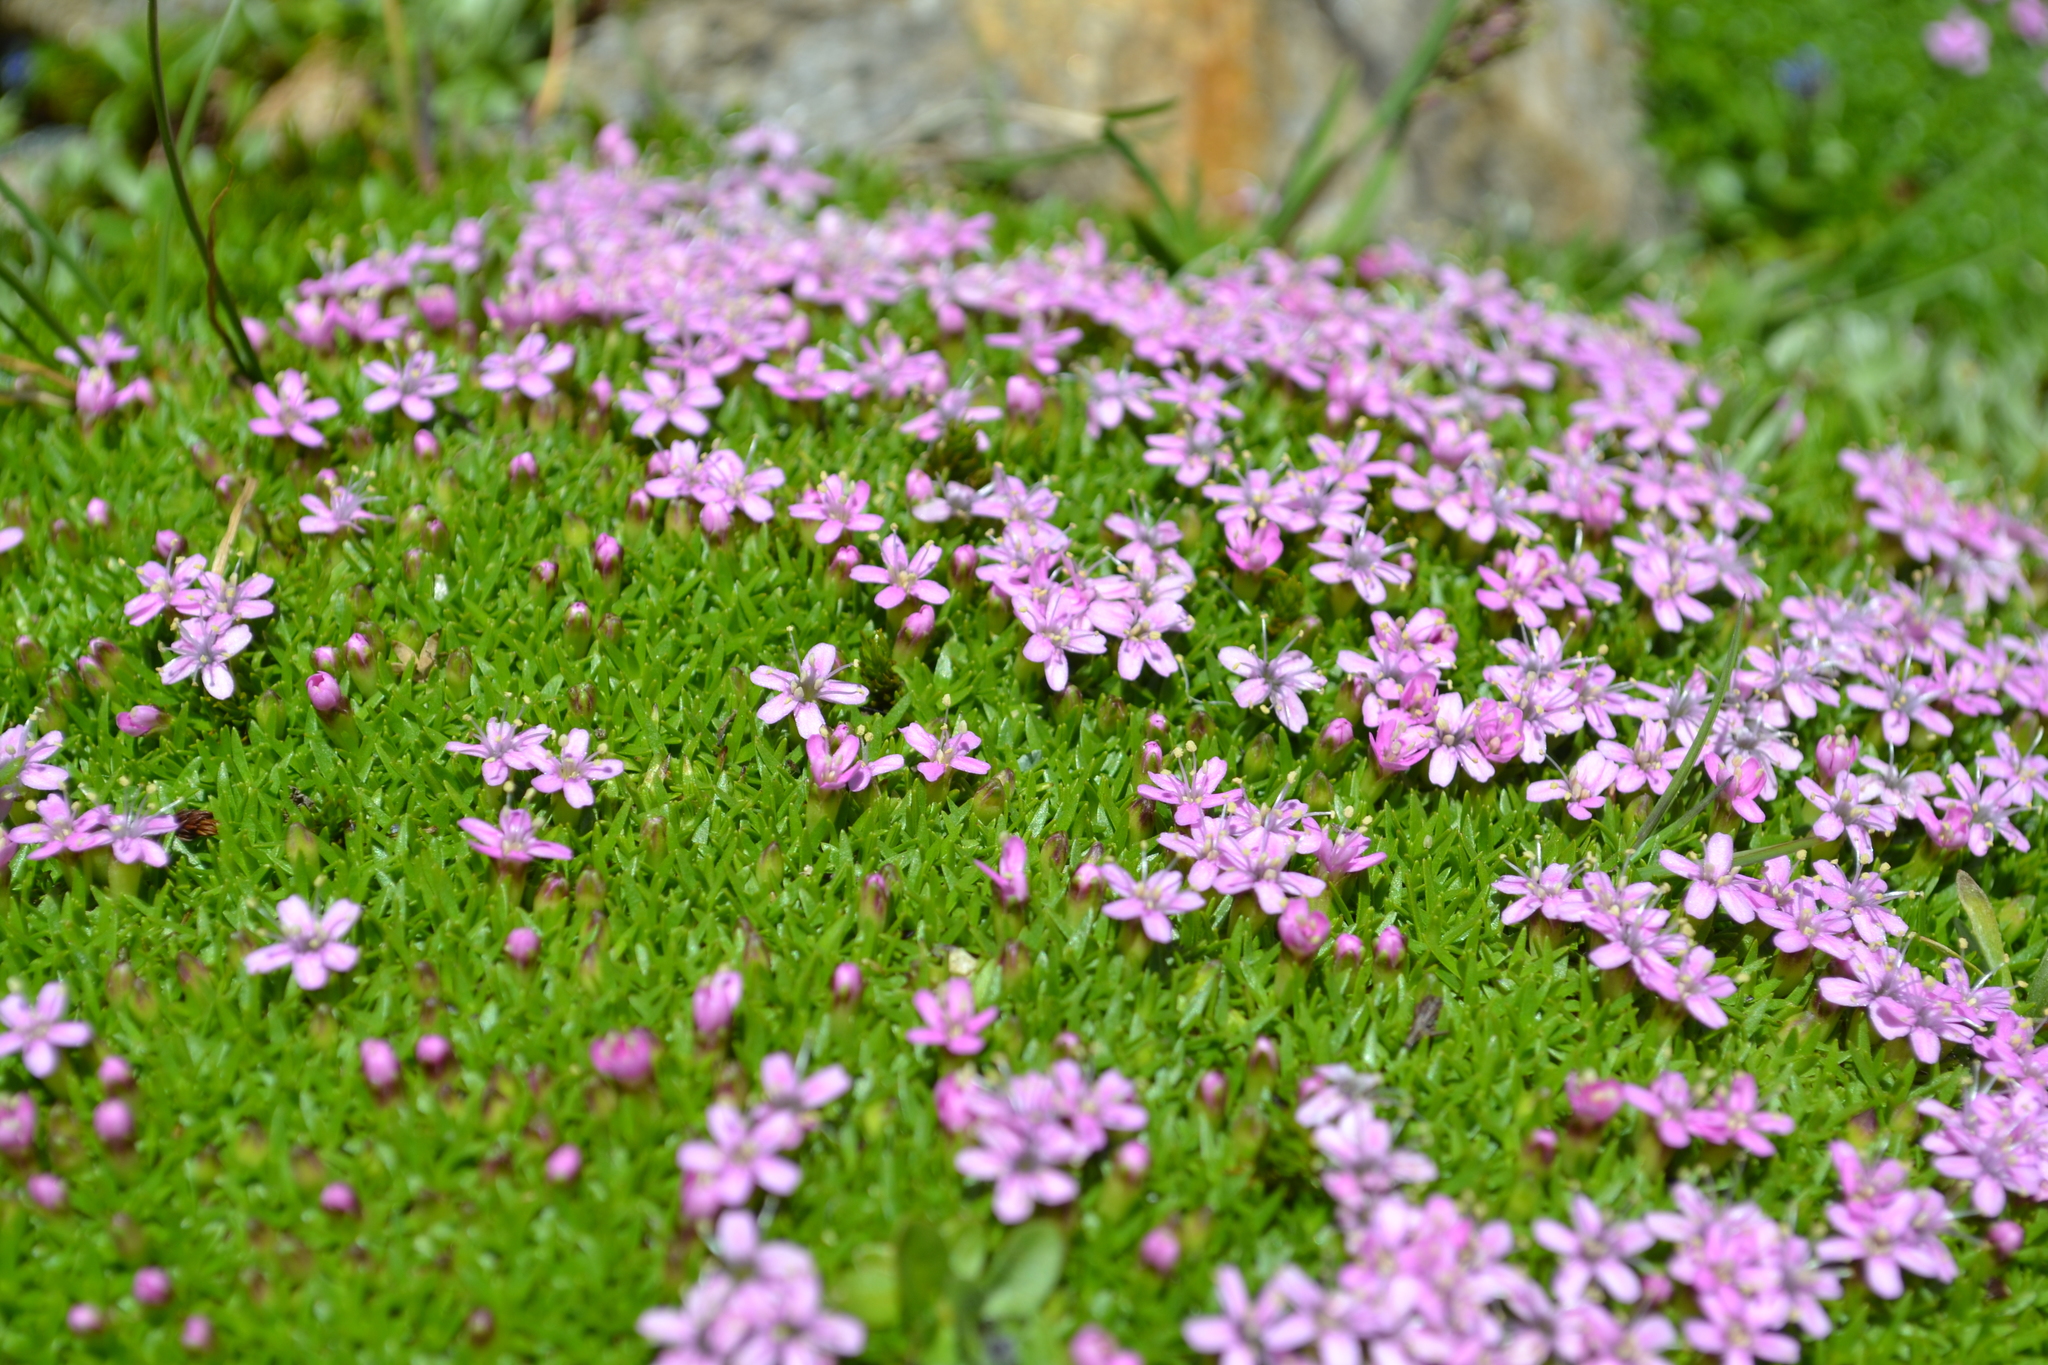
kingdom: Plantae
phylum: Tracheophyta
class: Magnoliopsida
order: Caryophyllales
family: Caryophyllaceae
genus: Silene
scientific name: Silene acaulis
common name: Moss campion
